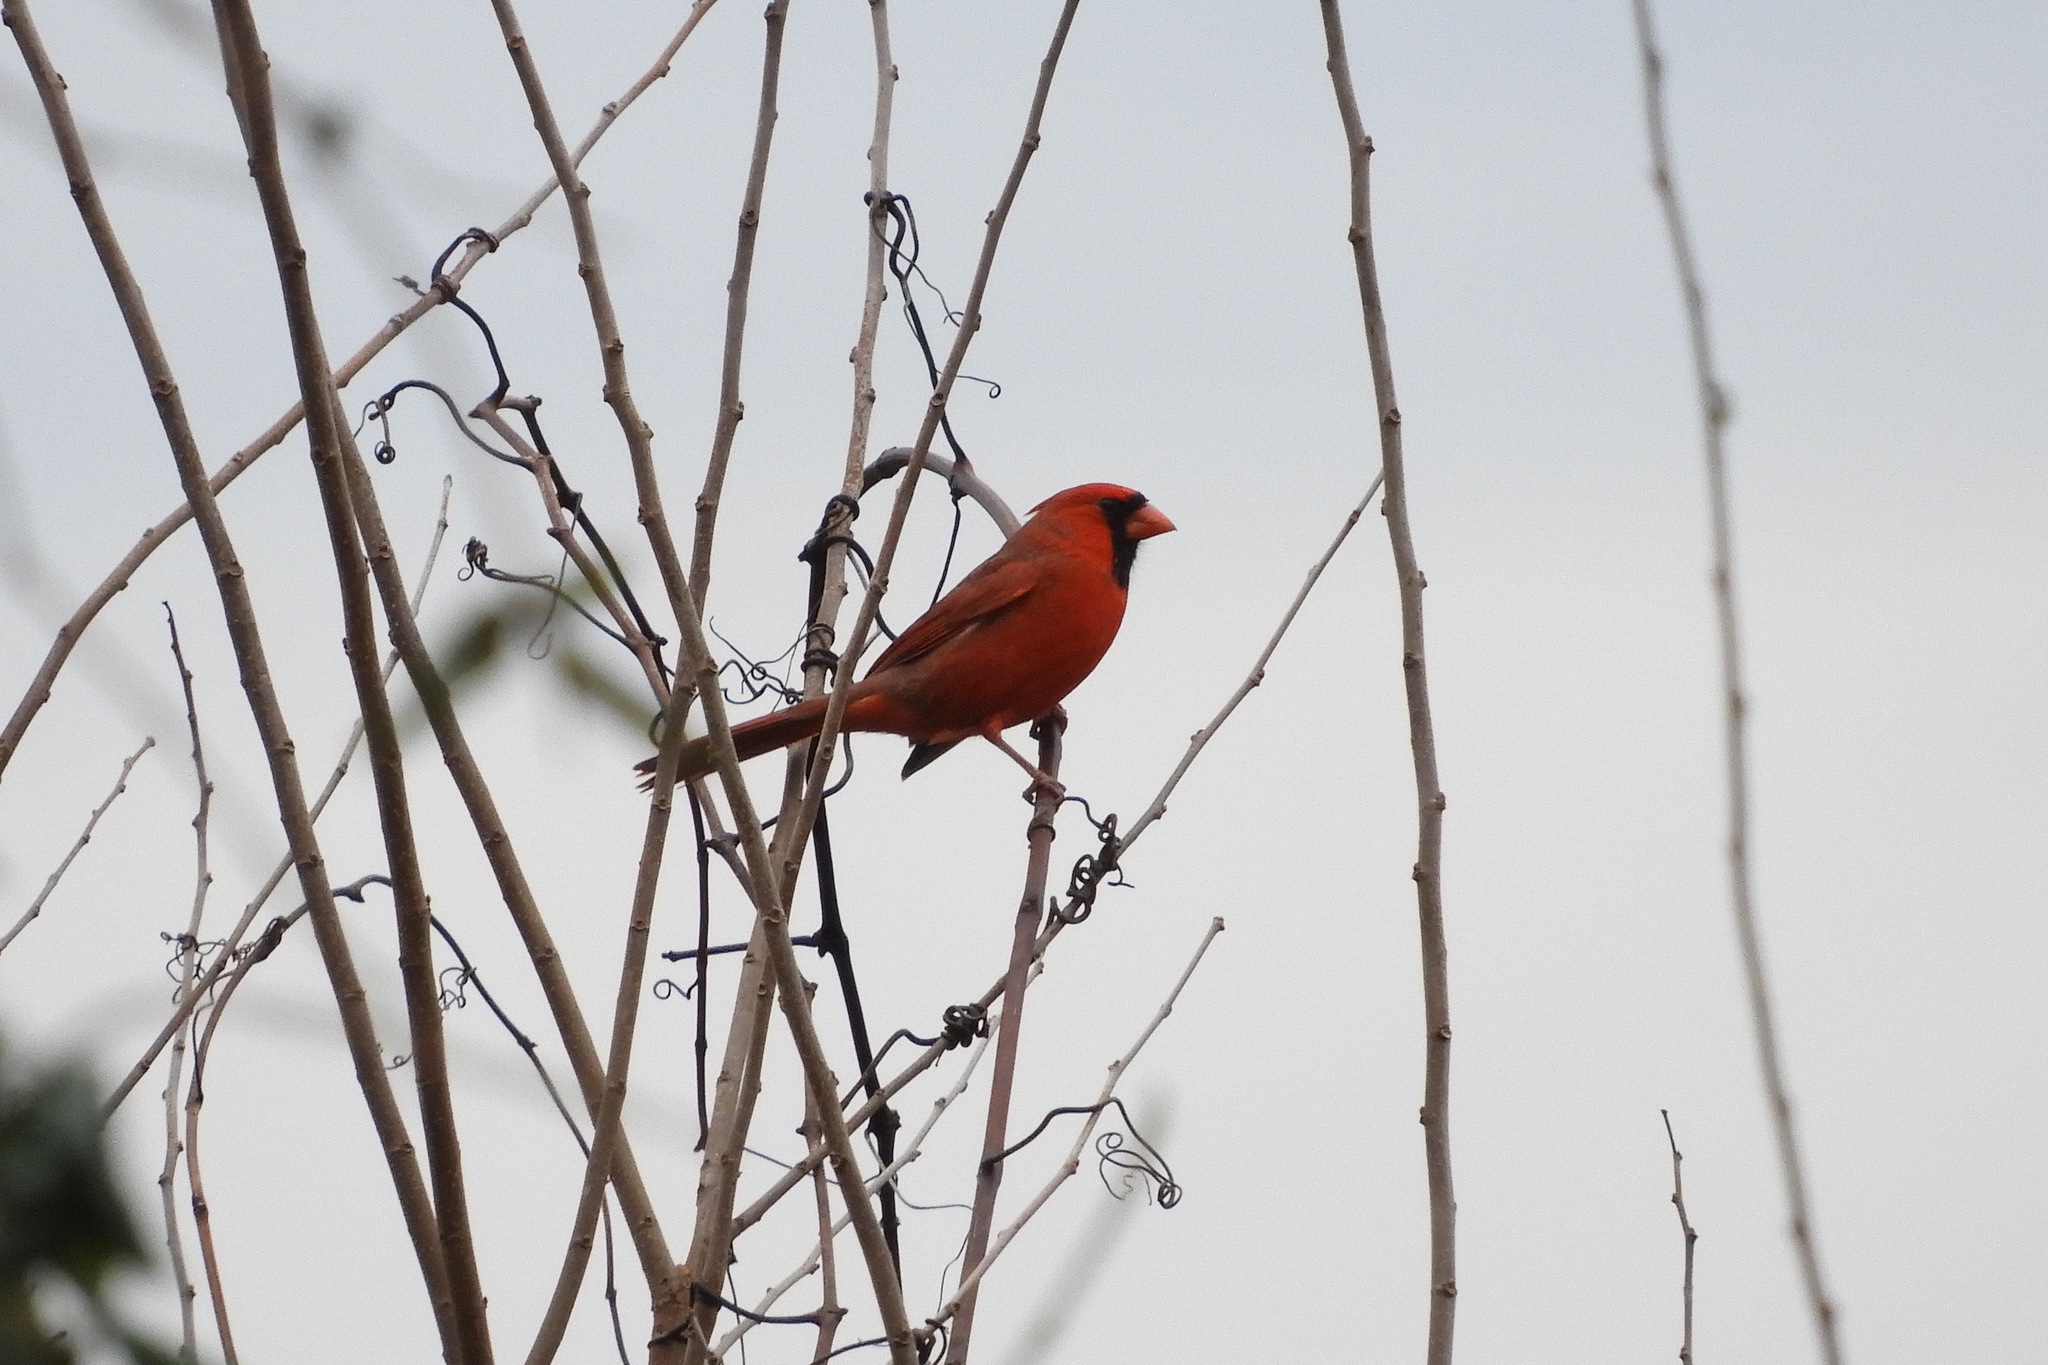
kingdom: Animalia
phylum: Chordata
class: Aves
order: Passeriformes
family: Cardinalidae
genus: Cardinalis
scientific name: Cardinalis cardinalis
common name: Northern cardinal
